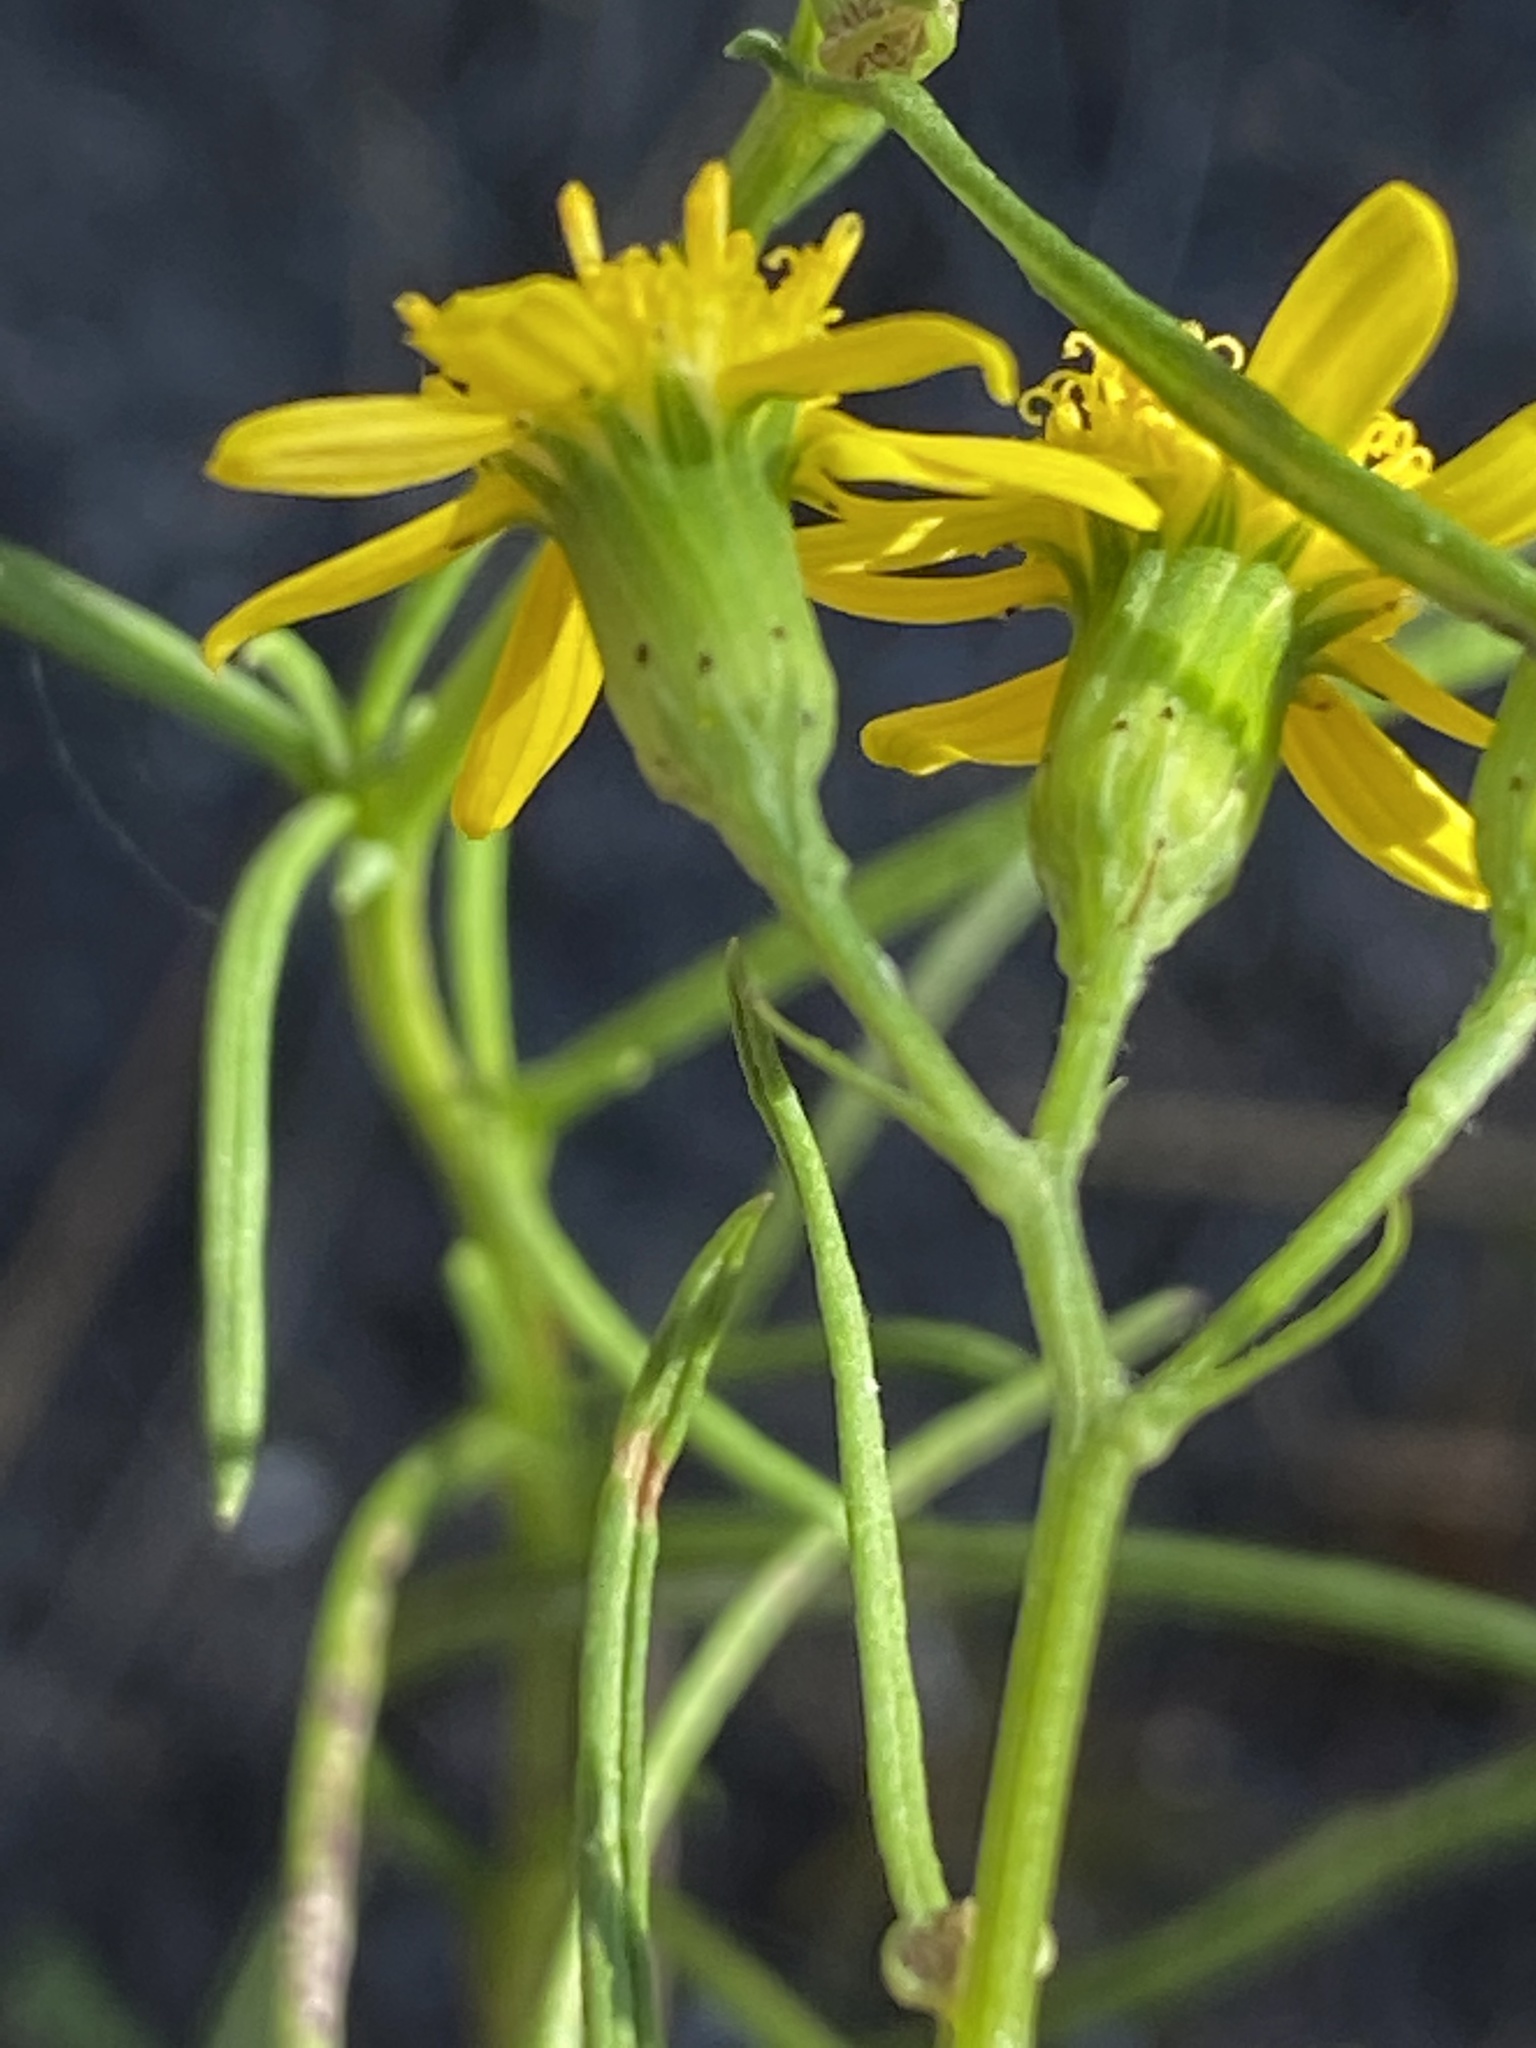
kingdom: Plantae
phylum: Tracheophyta
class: Magnoliopsida
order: Asterales
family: Asteraceae
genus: Senecio
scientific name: Senecio inaequidens
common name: Narrow-leaved ragwort
